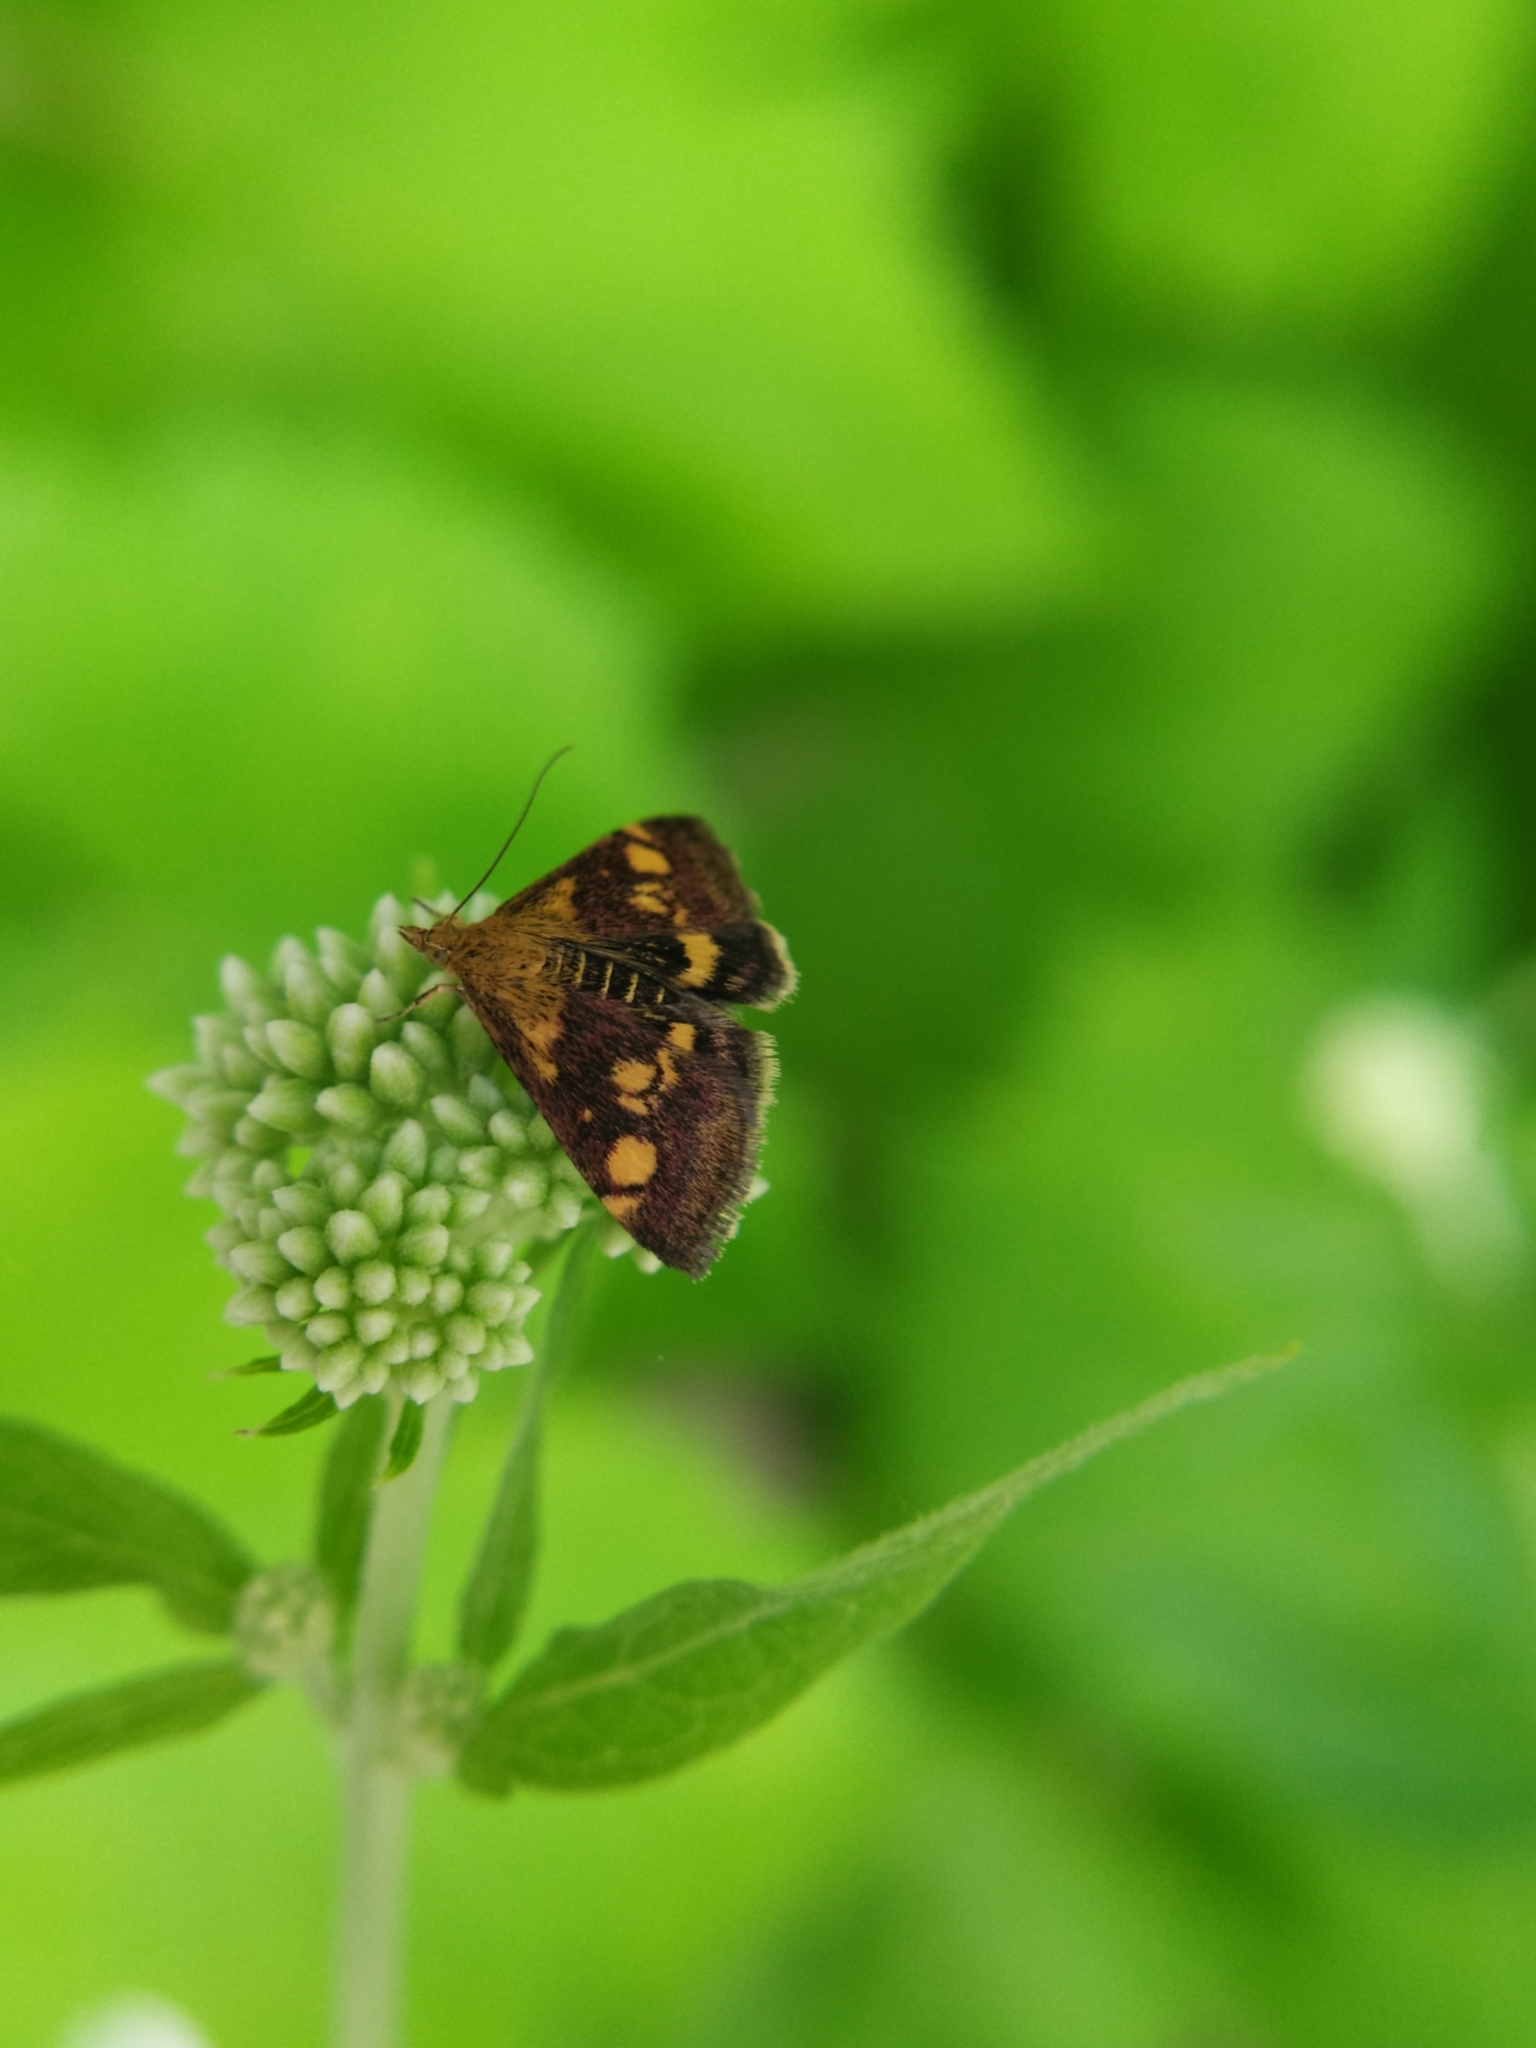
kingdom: Animalia
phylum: Arthropoda
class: Insecta
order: Lepidoptera
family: Crambidae
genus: Pyrausta
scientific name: Pyrausta aurata
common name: Small purple & gold
